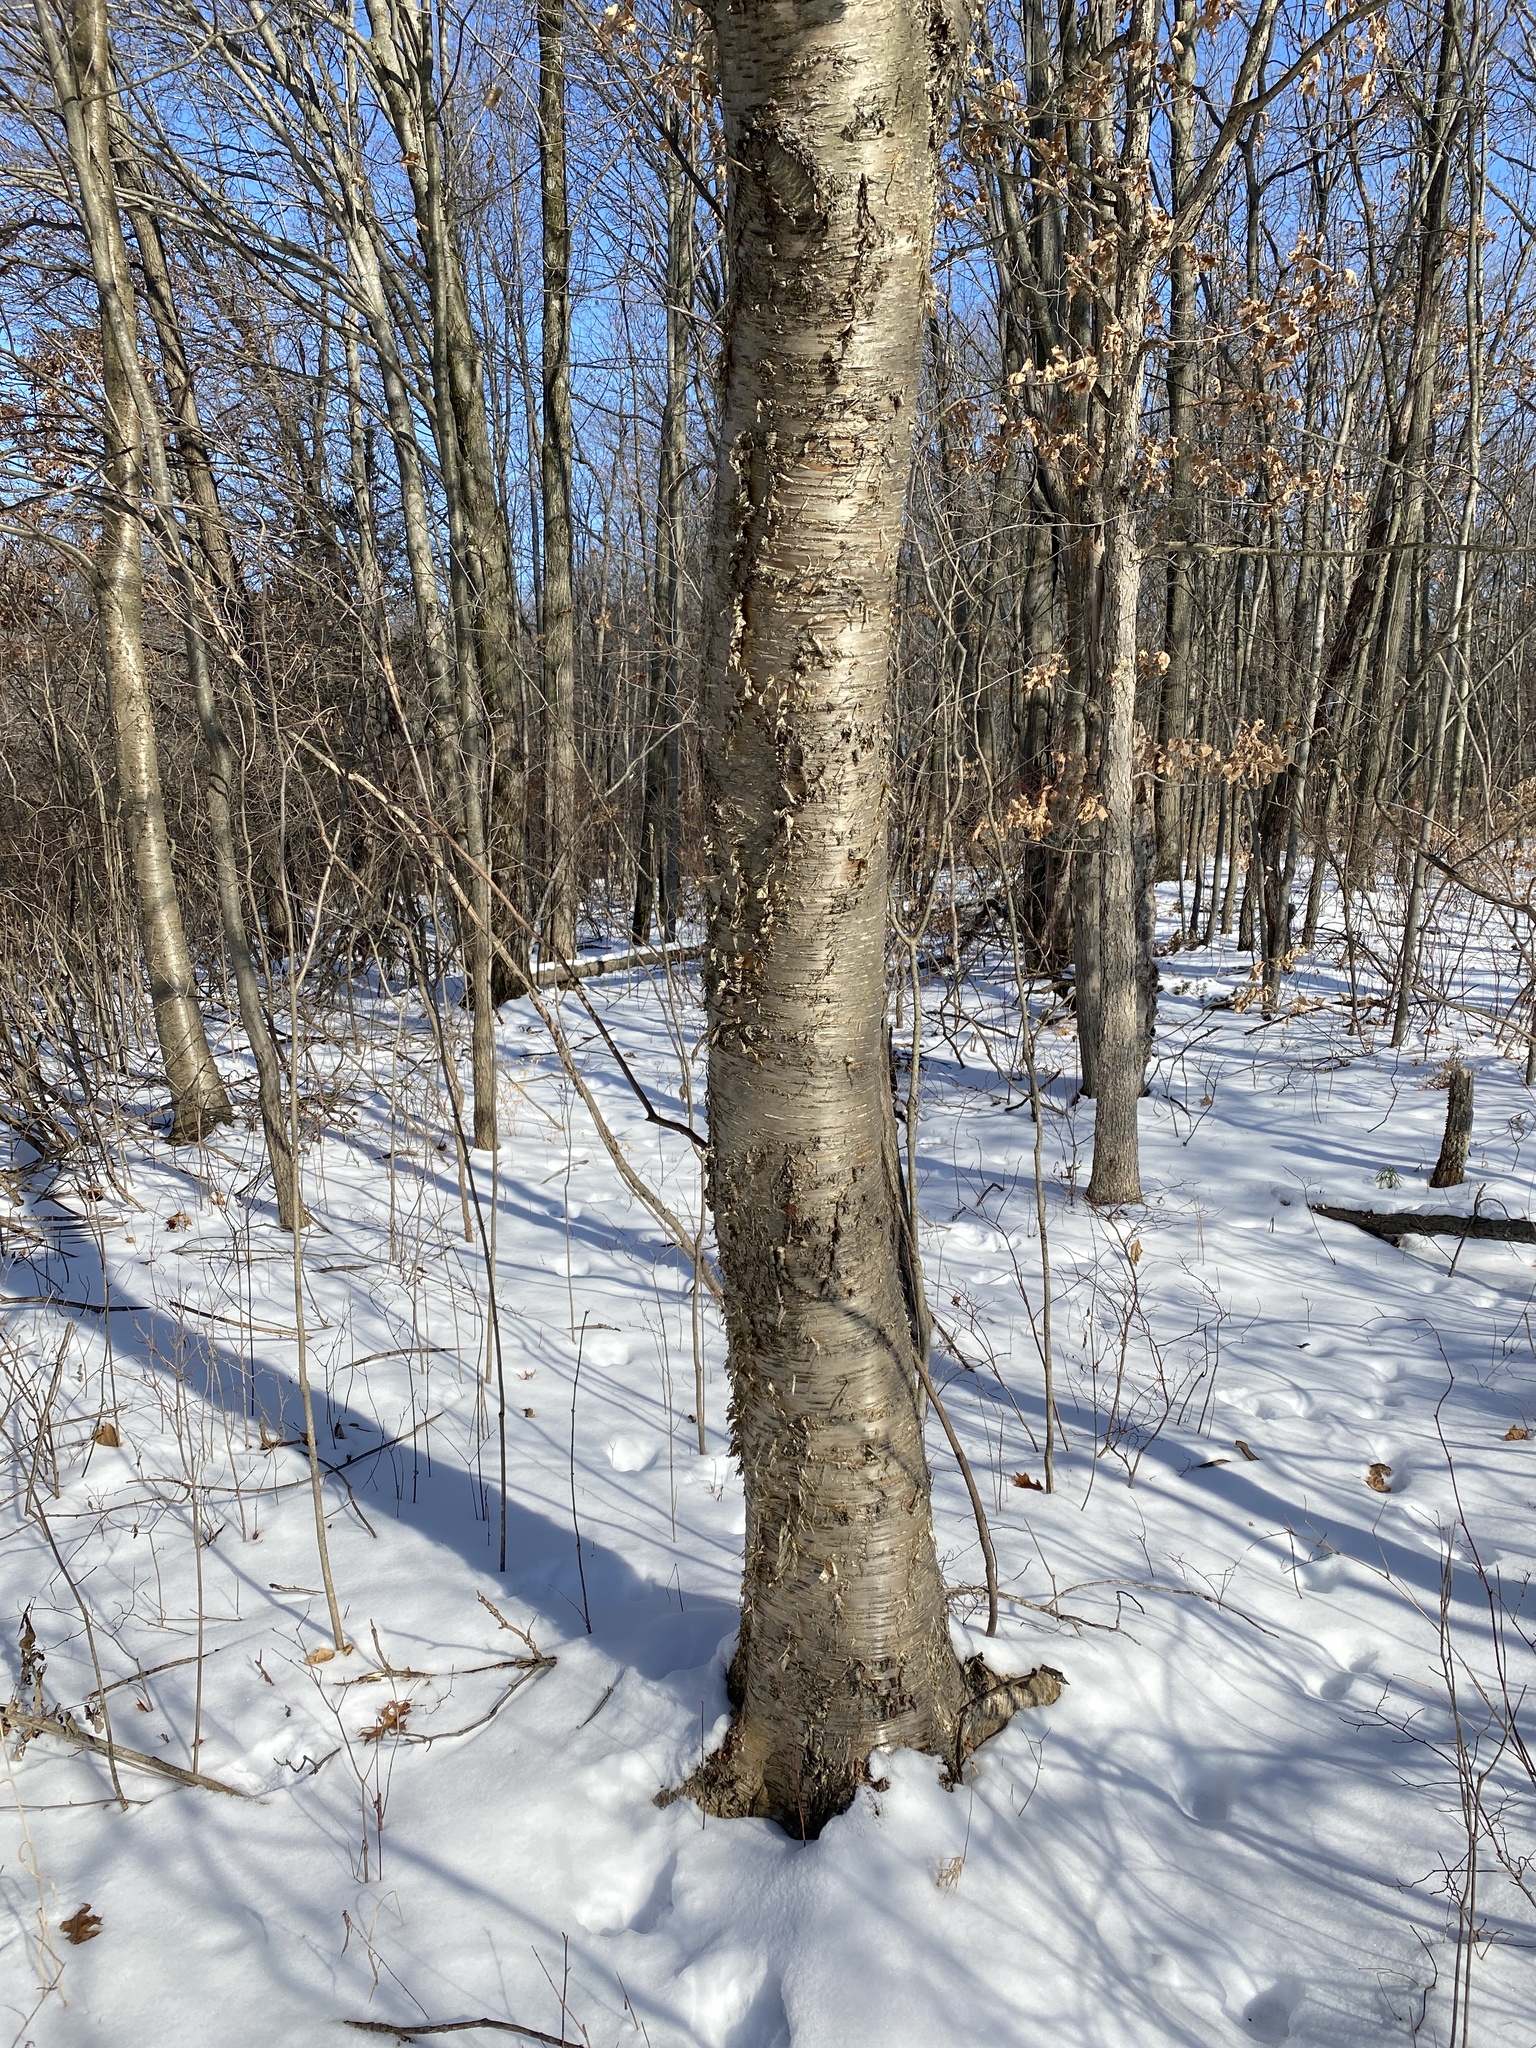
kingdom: Plantae
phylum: Tracheophyta
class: Magnoliopsida
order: Fagales
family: Betulaceae
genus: Betula
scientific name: Betula alleghaniensis
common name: Yellow birch
